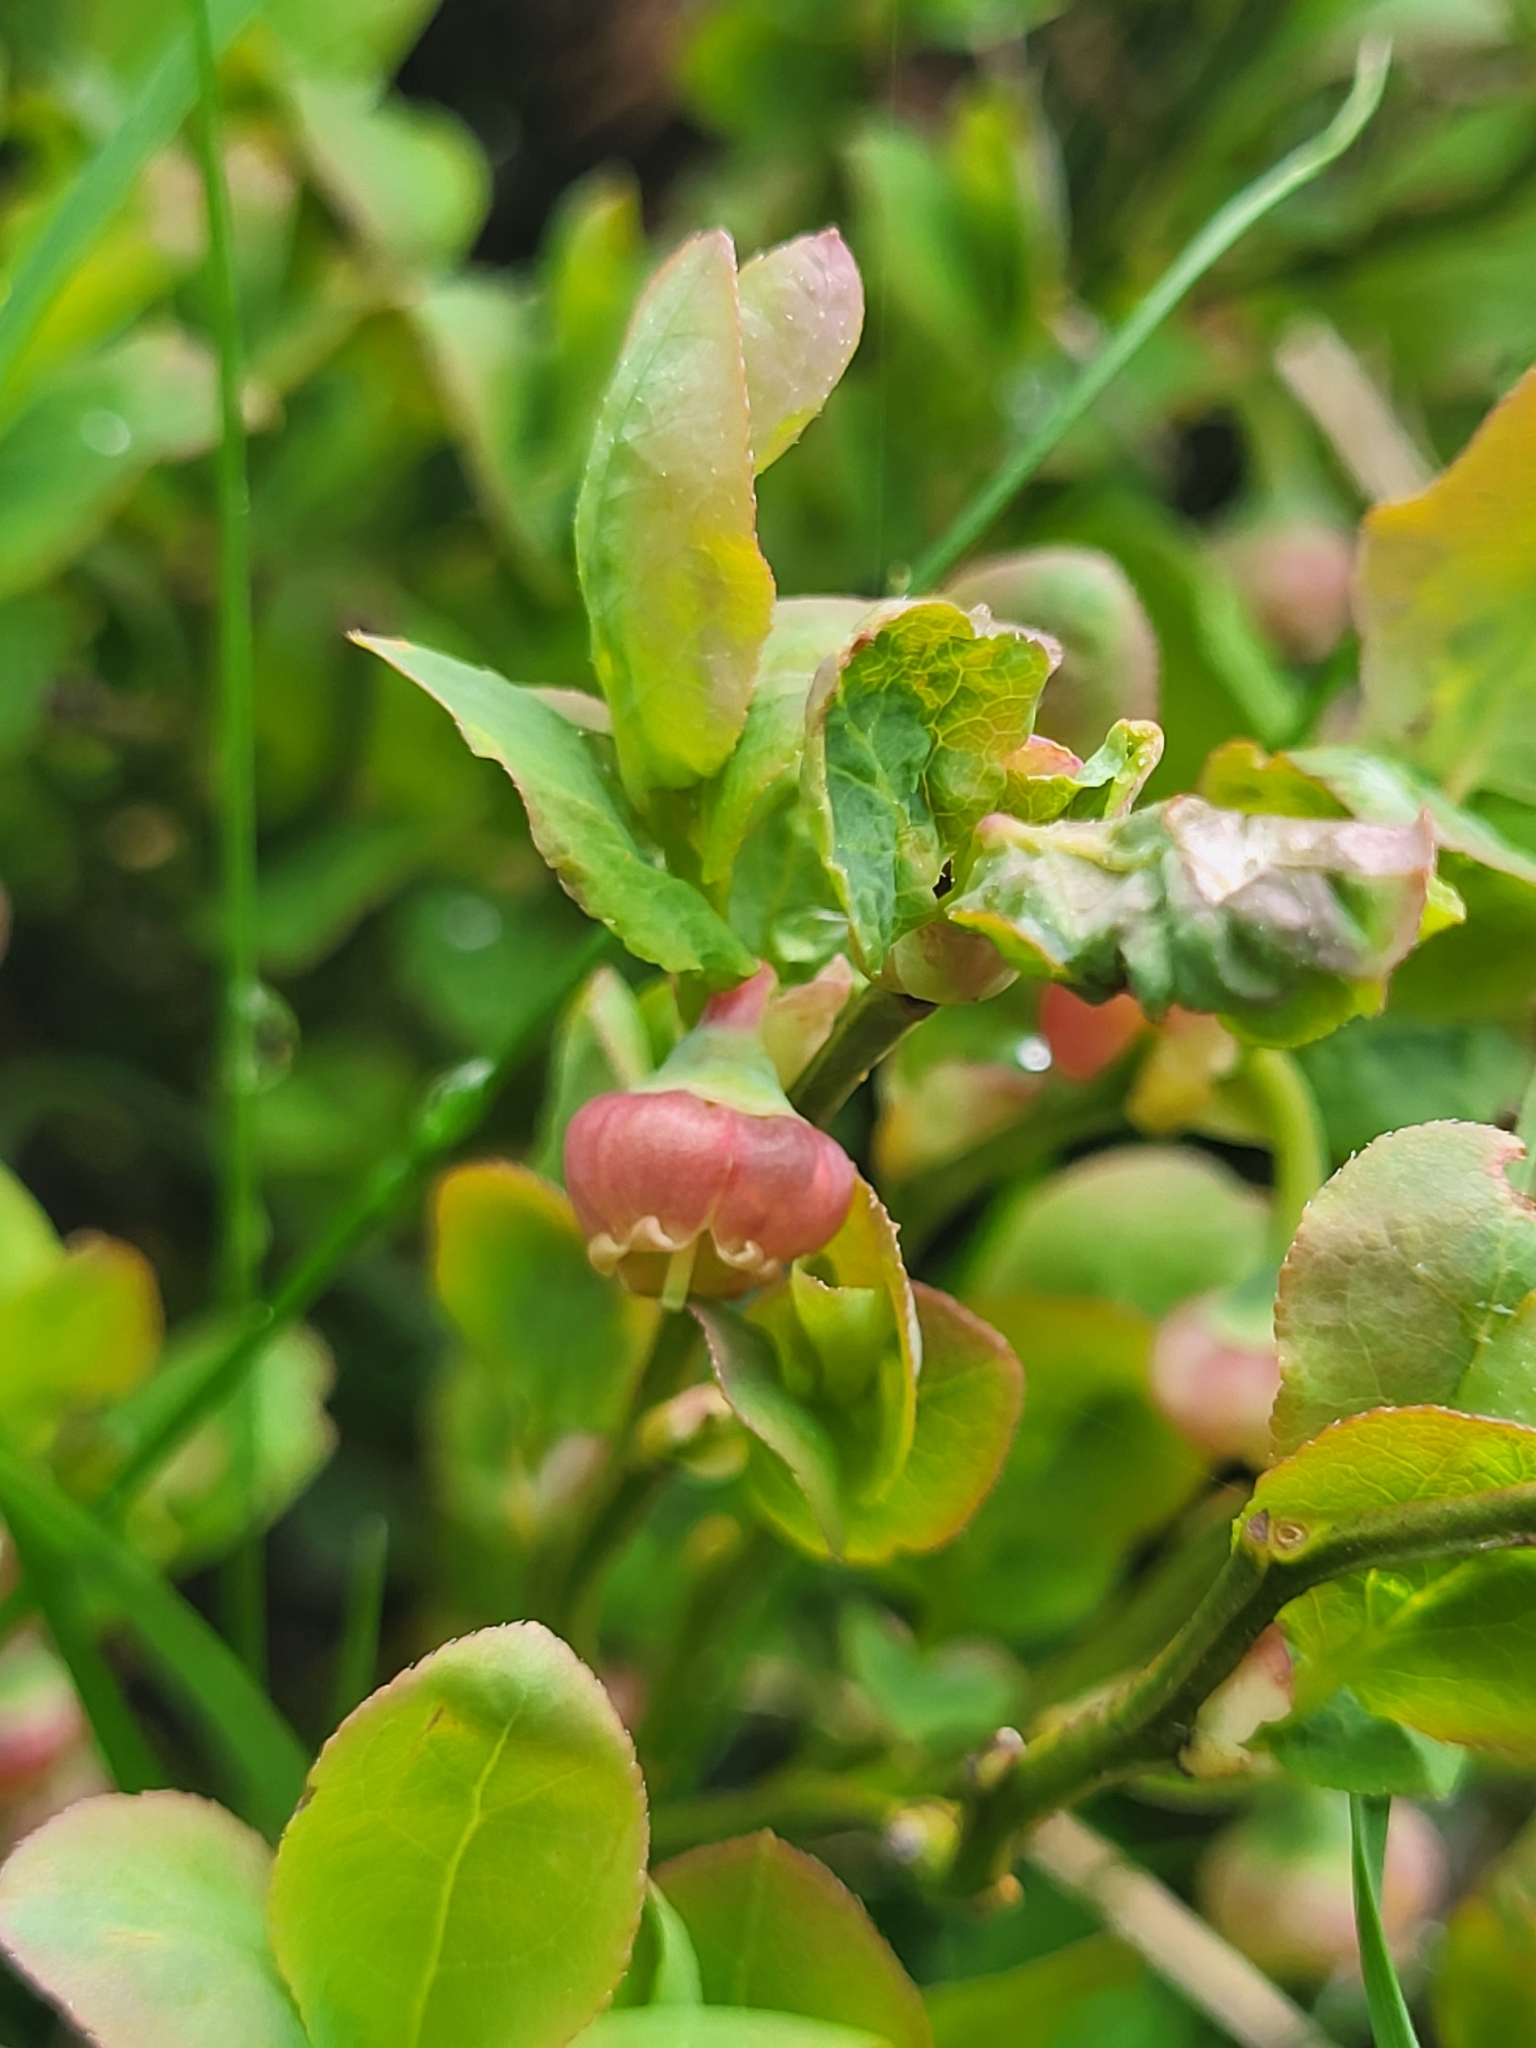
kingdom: Plantae
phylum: Tracheophyta
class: Magnoliopsida
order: Ericales
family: Ericaceae
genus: Vaccinium
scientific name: Vaccinium myrtillus
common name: Bilberry
